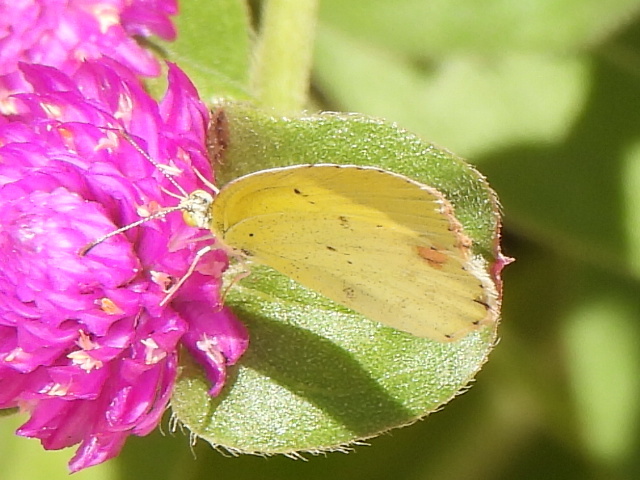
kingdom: Animalia
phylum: Arthropoda
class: Insecta
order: Lepidoptera
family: Pieridae
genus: Pyrisitia
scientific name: Pyrisitia lisa
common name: Little yellow
